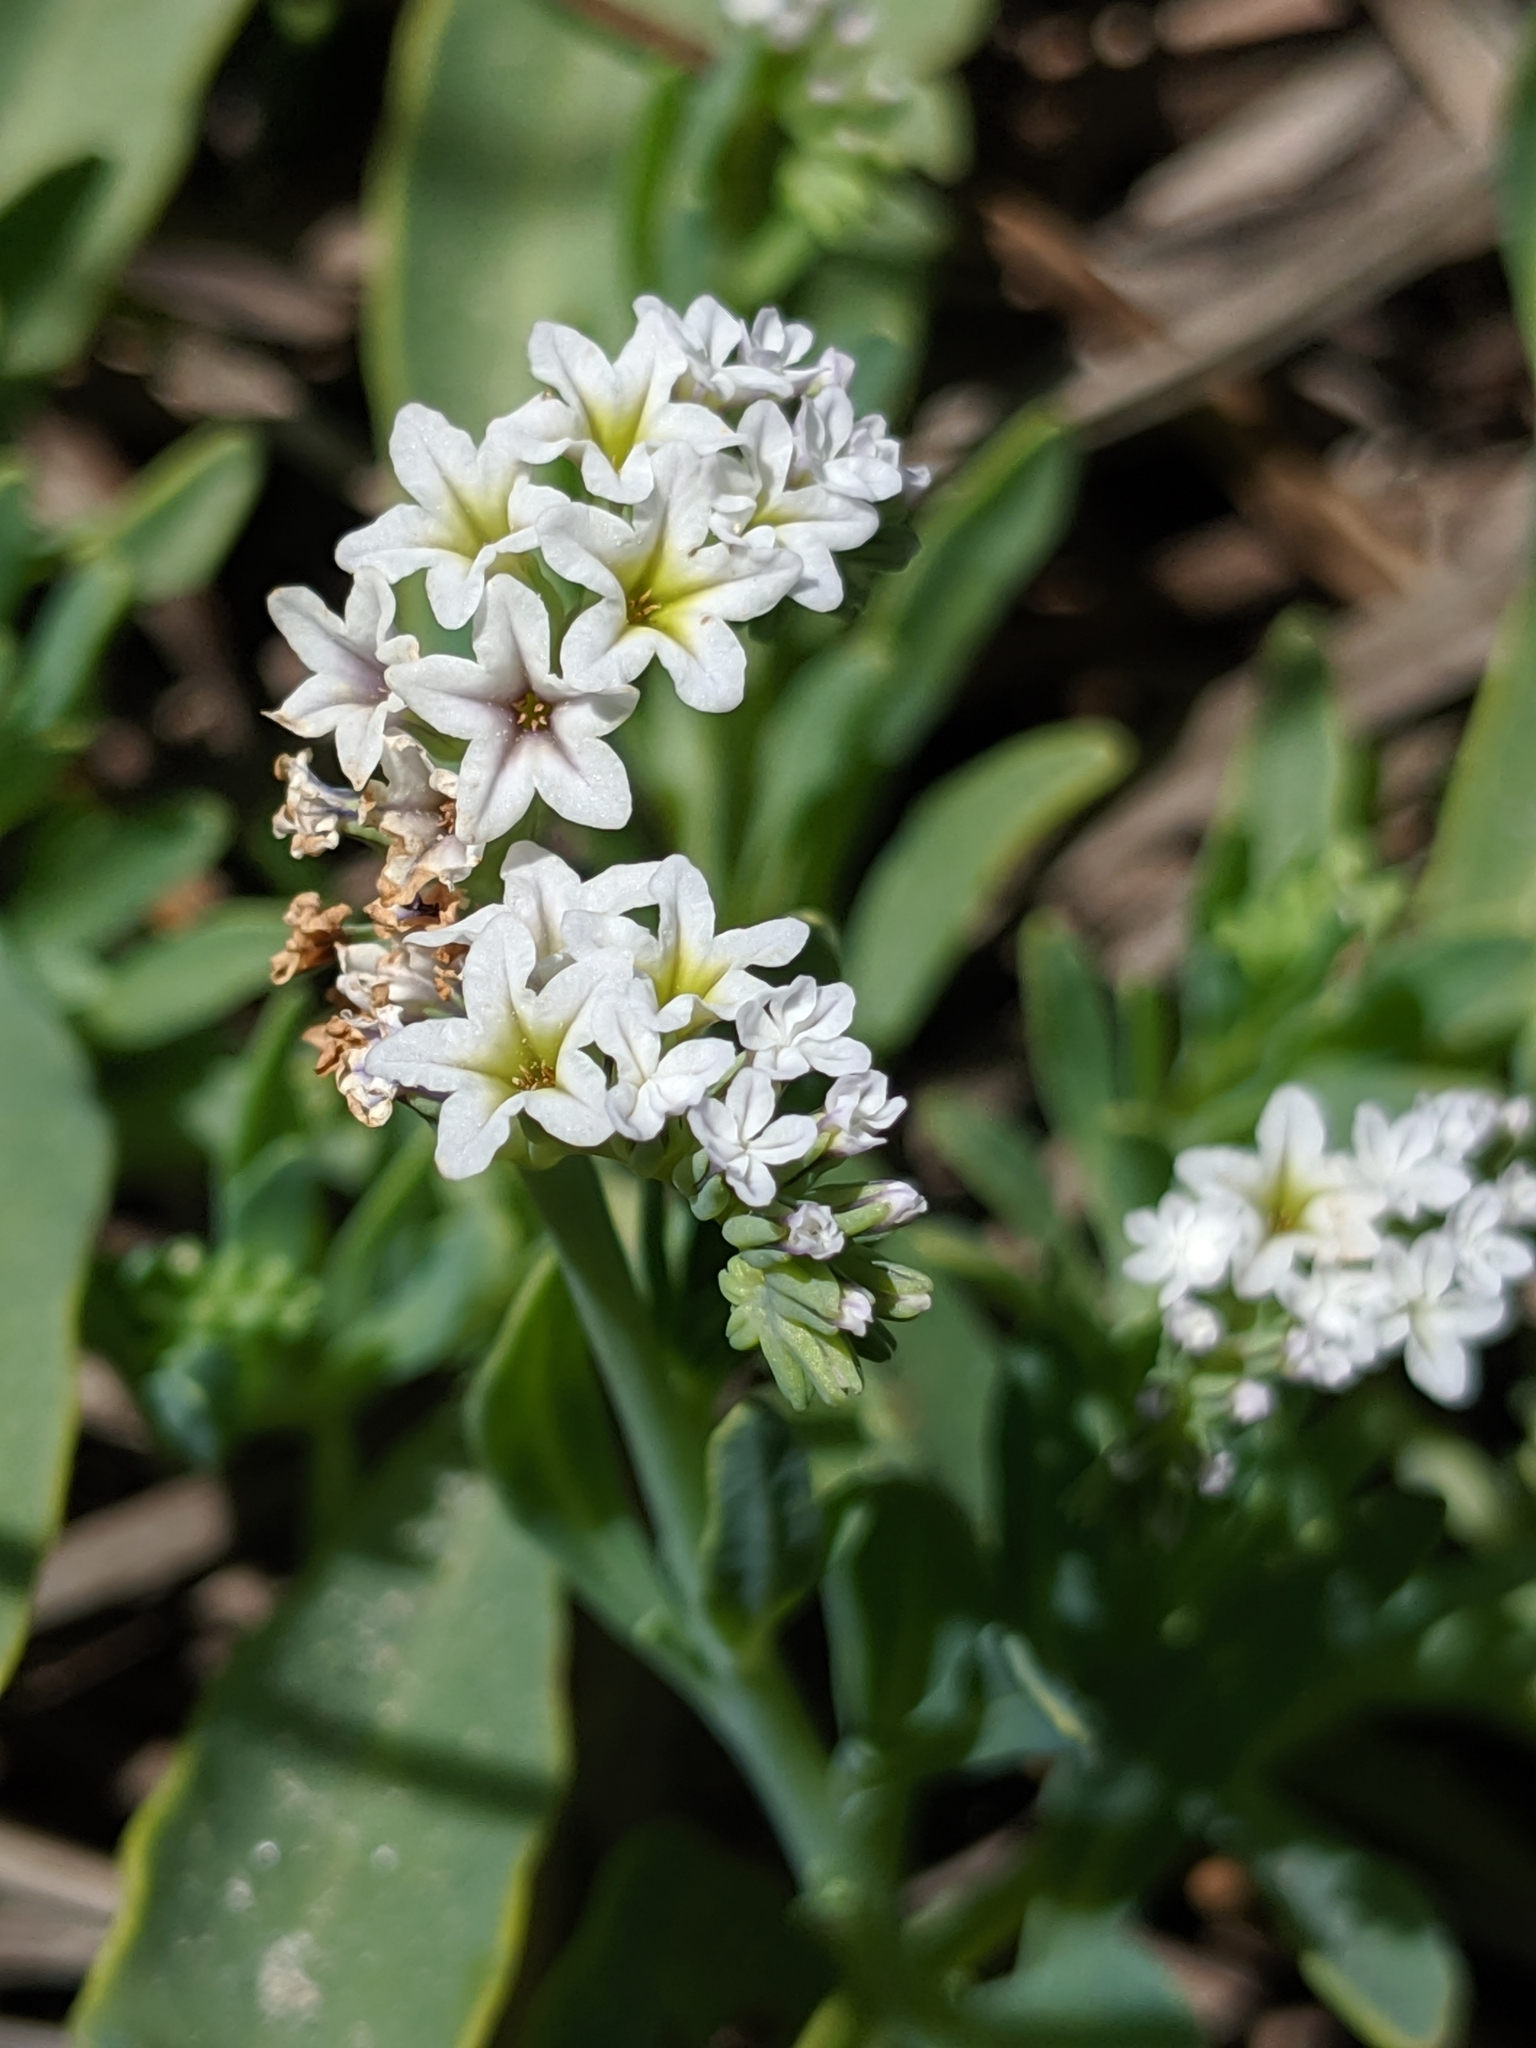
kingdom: Plantae
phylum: Tracheophyta
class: Magnoliopsida
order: Boraginales
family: Heliotropiaceae
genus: Heliotropium
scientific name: Heliotropium curassavicum
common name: Seaside heliotrope
